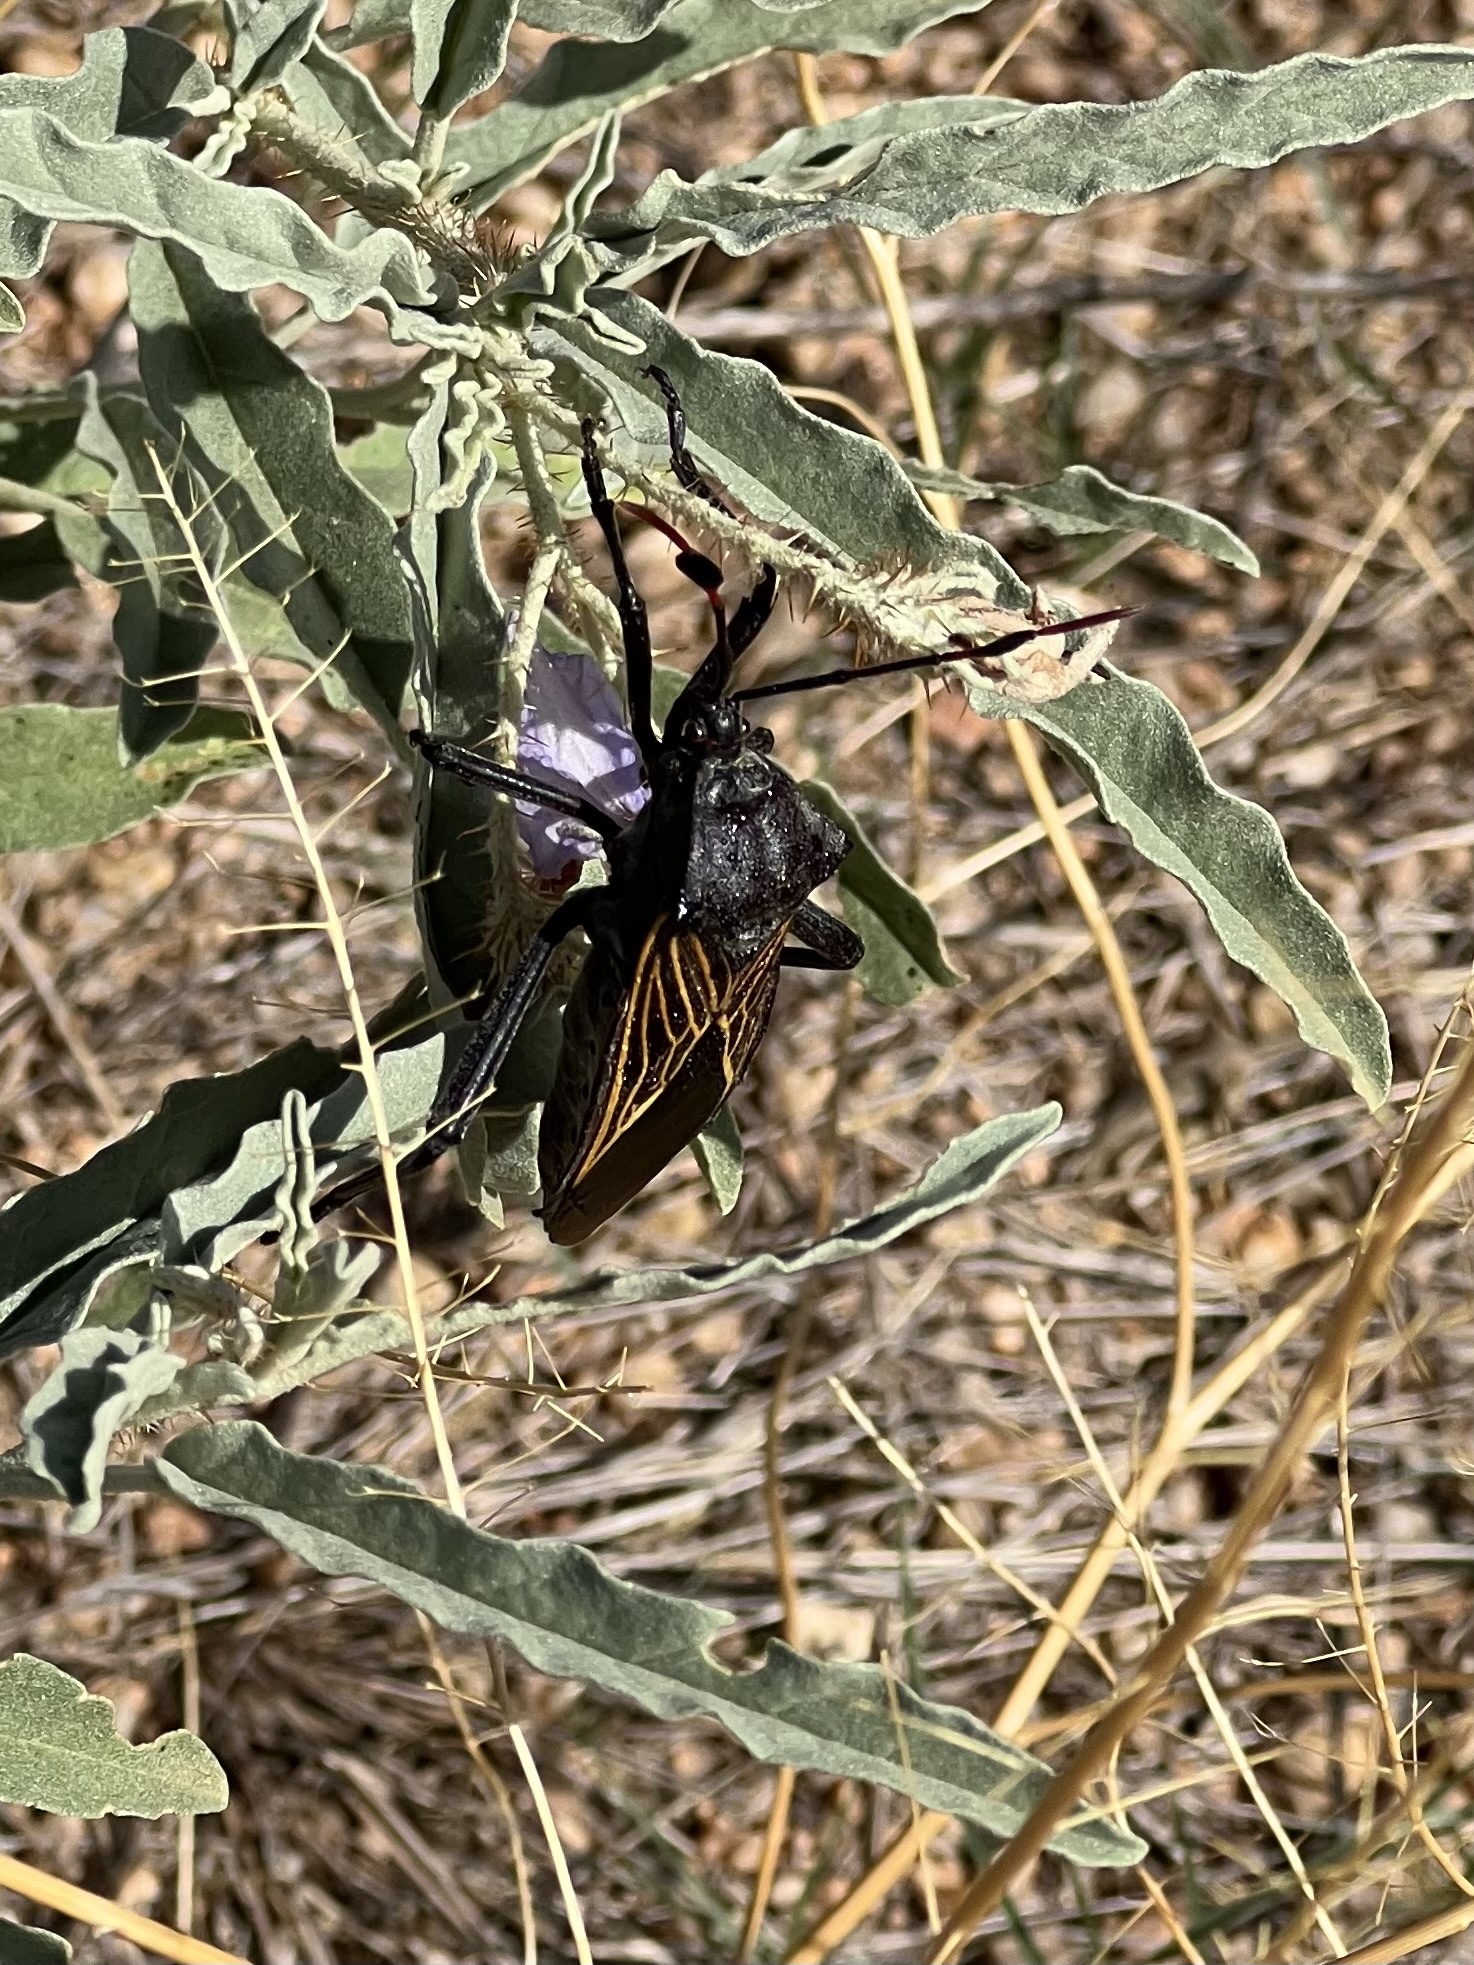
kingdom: Animalia
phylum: Arthropoda
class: Insecta
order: Hemiptera
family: Coreidae
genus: Thasus
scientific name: Thasus neocalifornicus
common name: Giant mesquite bug
